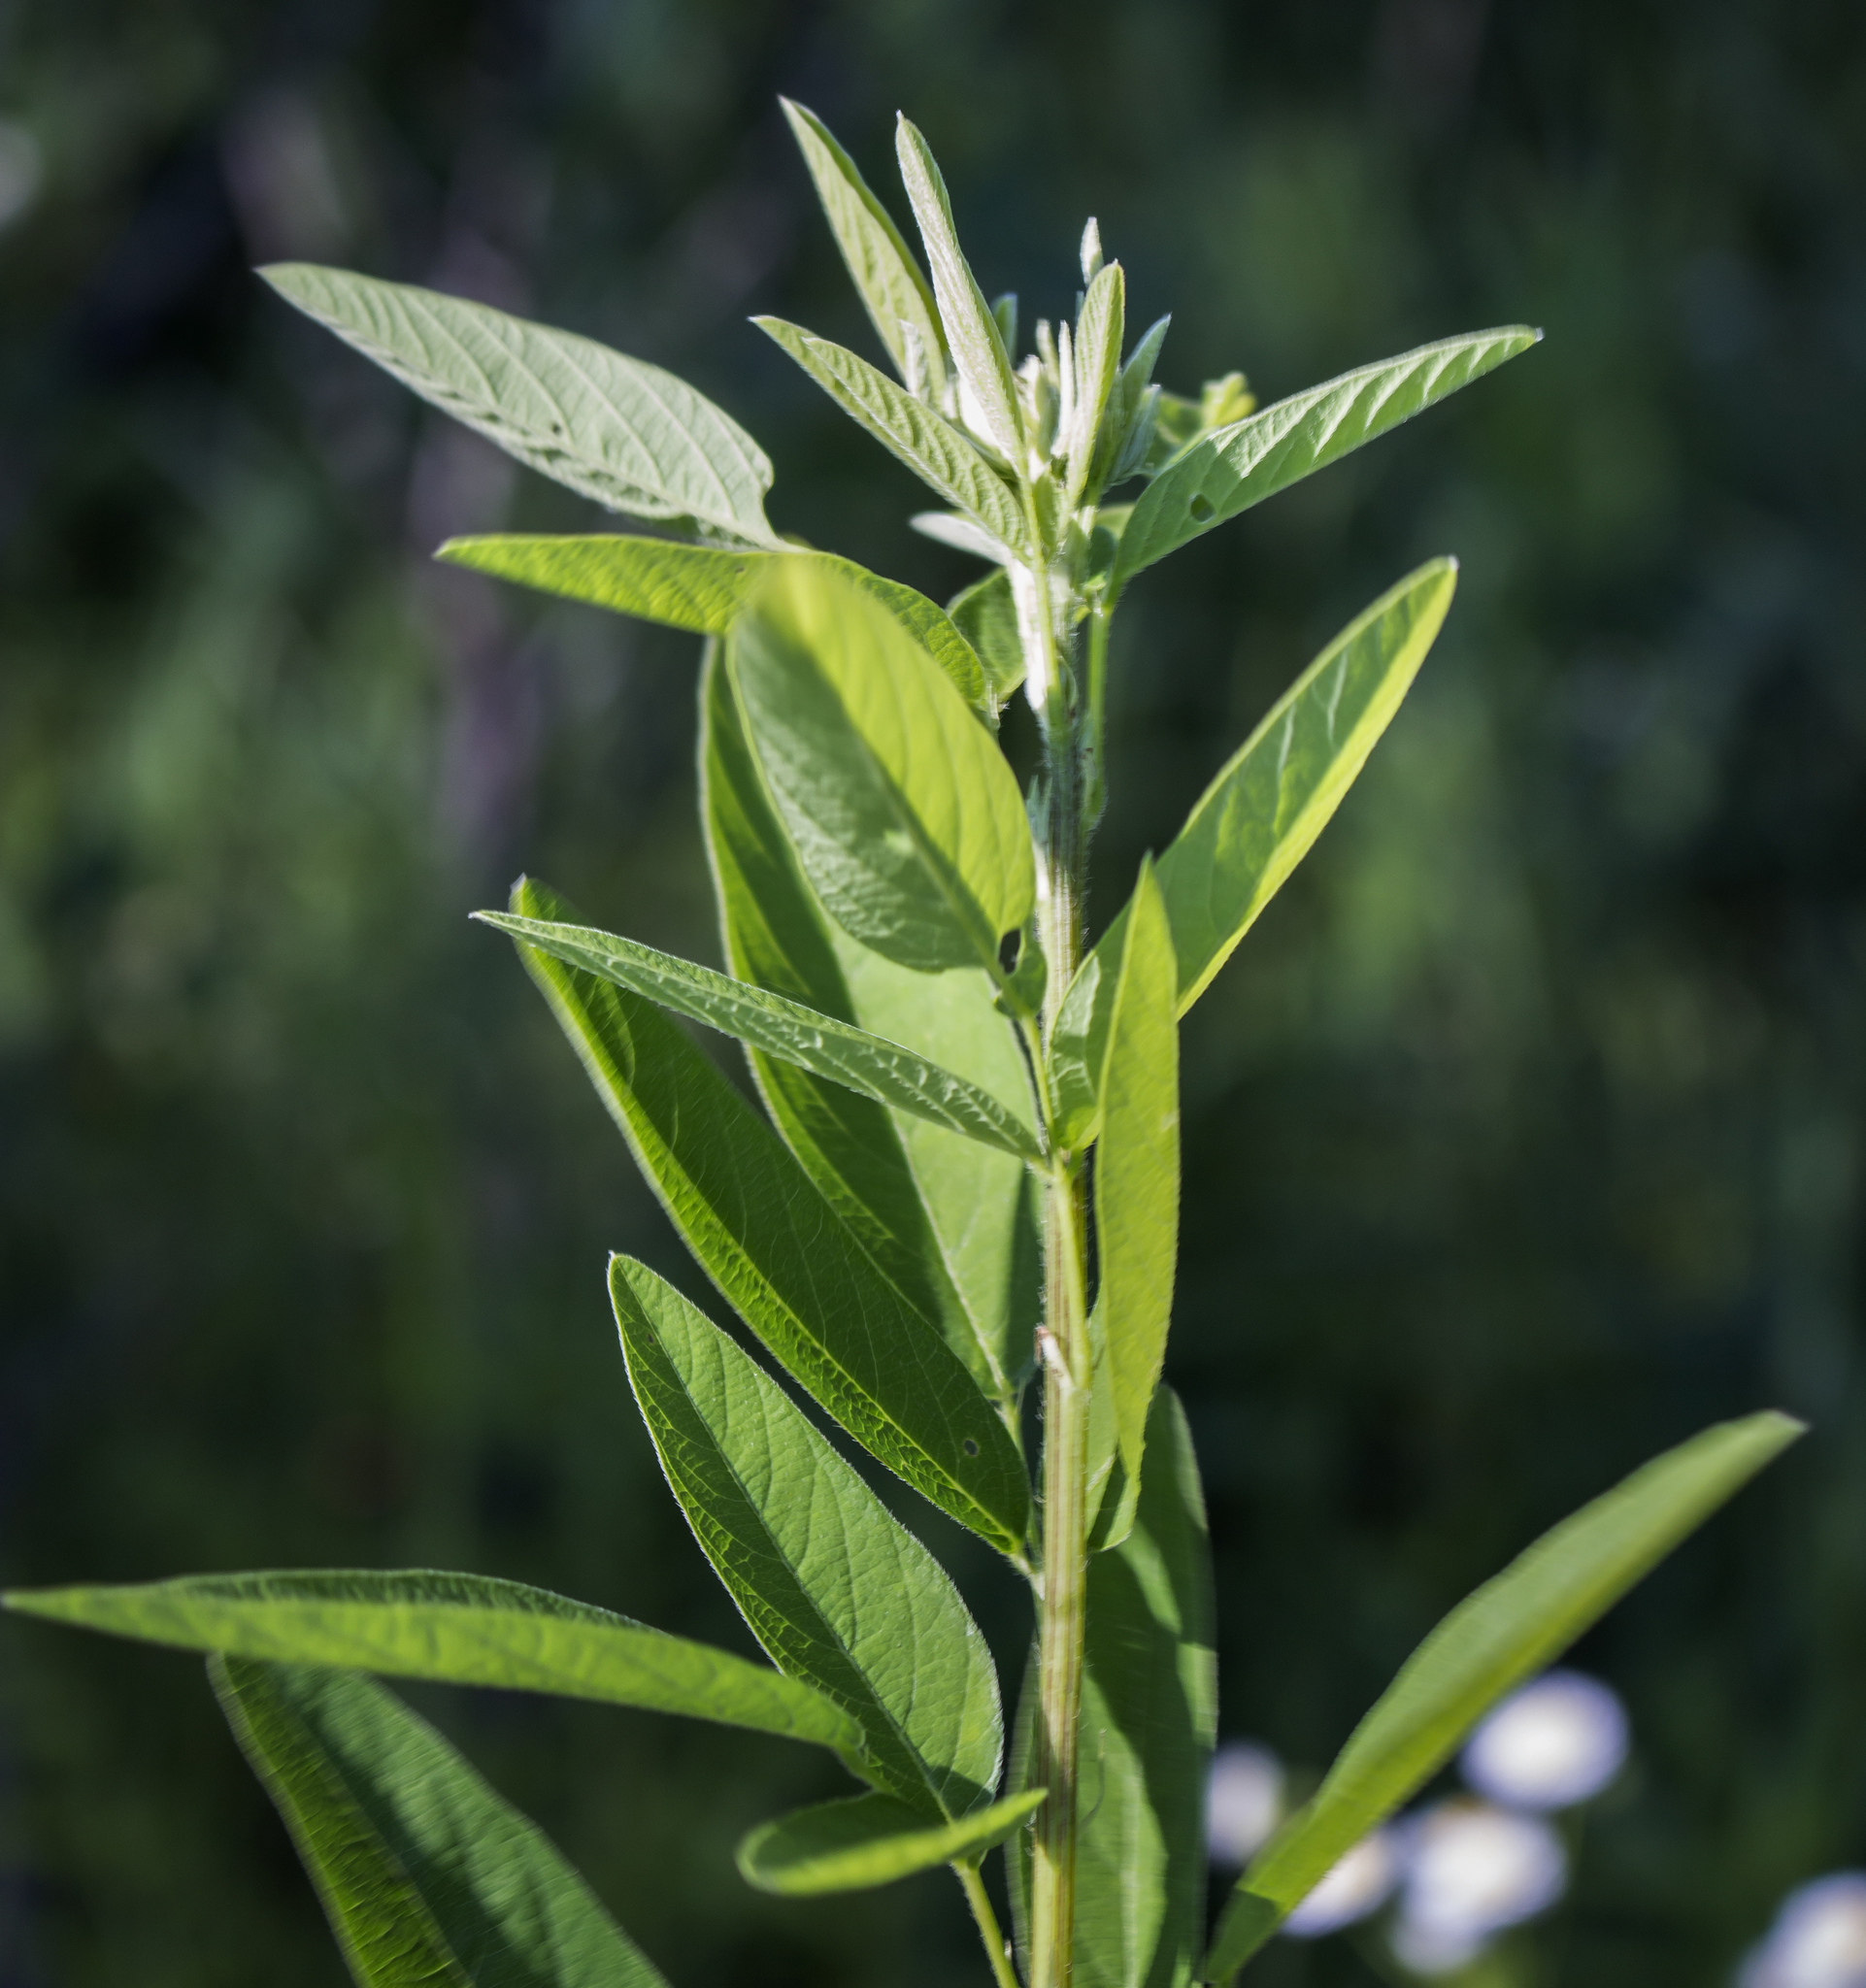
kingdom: Plantae
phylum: Tracheophyta
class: Magnoliopsida
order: Fabales
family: Fabaceae
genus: Desmodium
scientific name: Desmodium canadense
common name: Canada tick-trefoil
